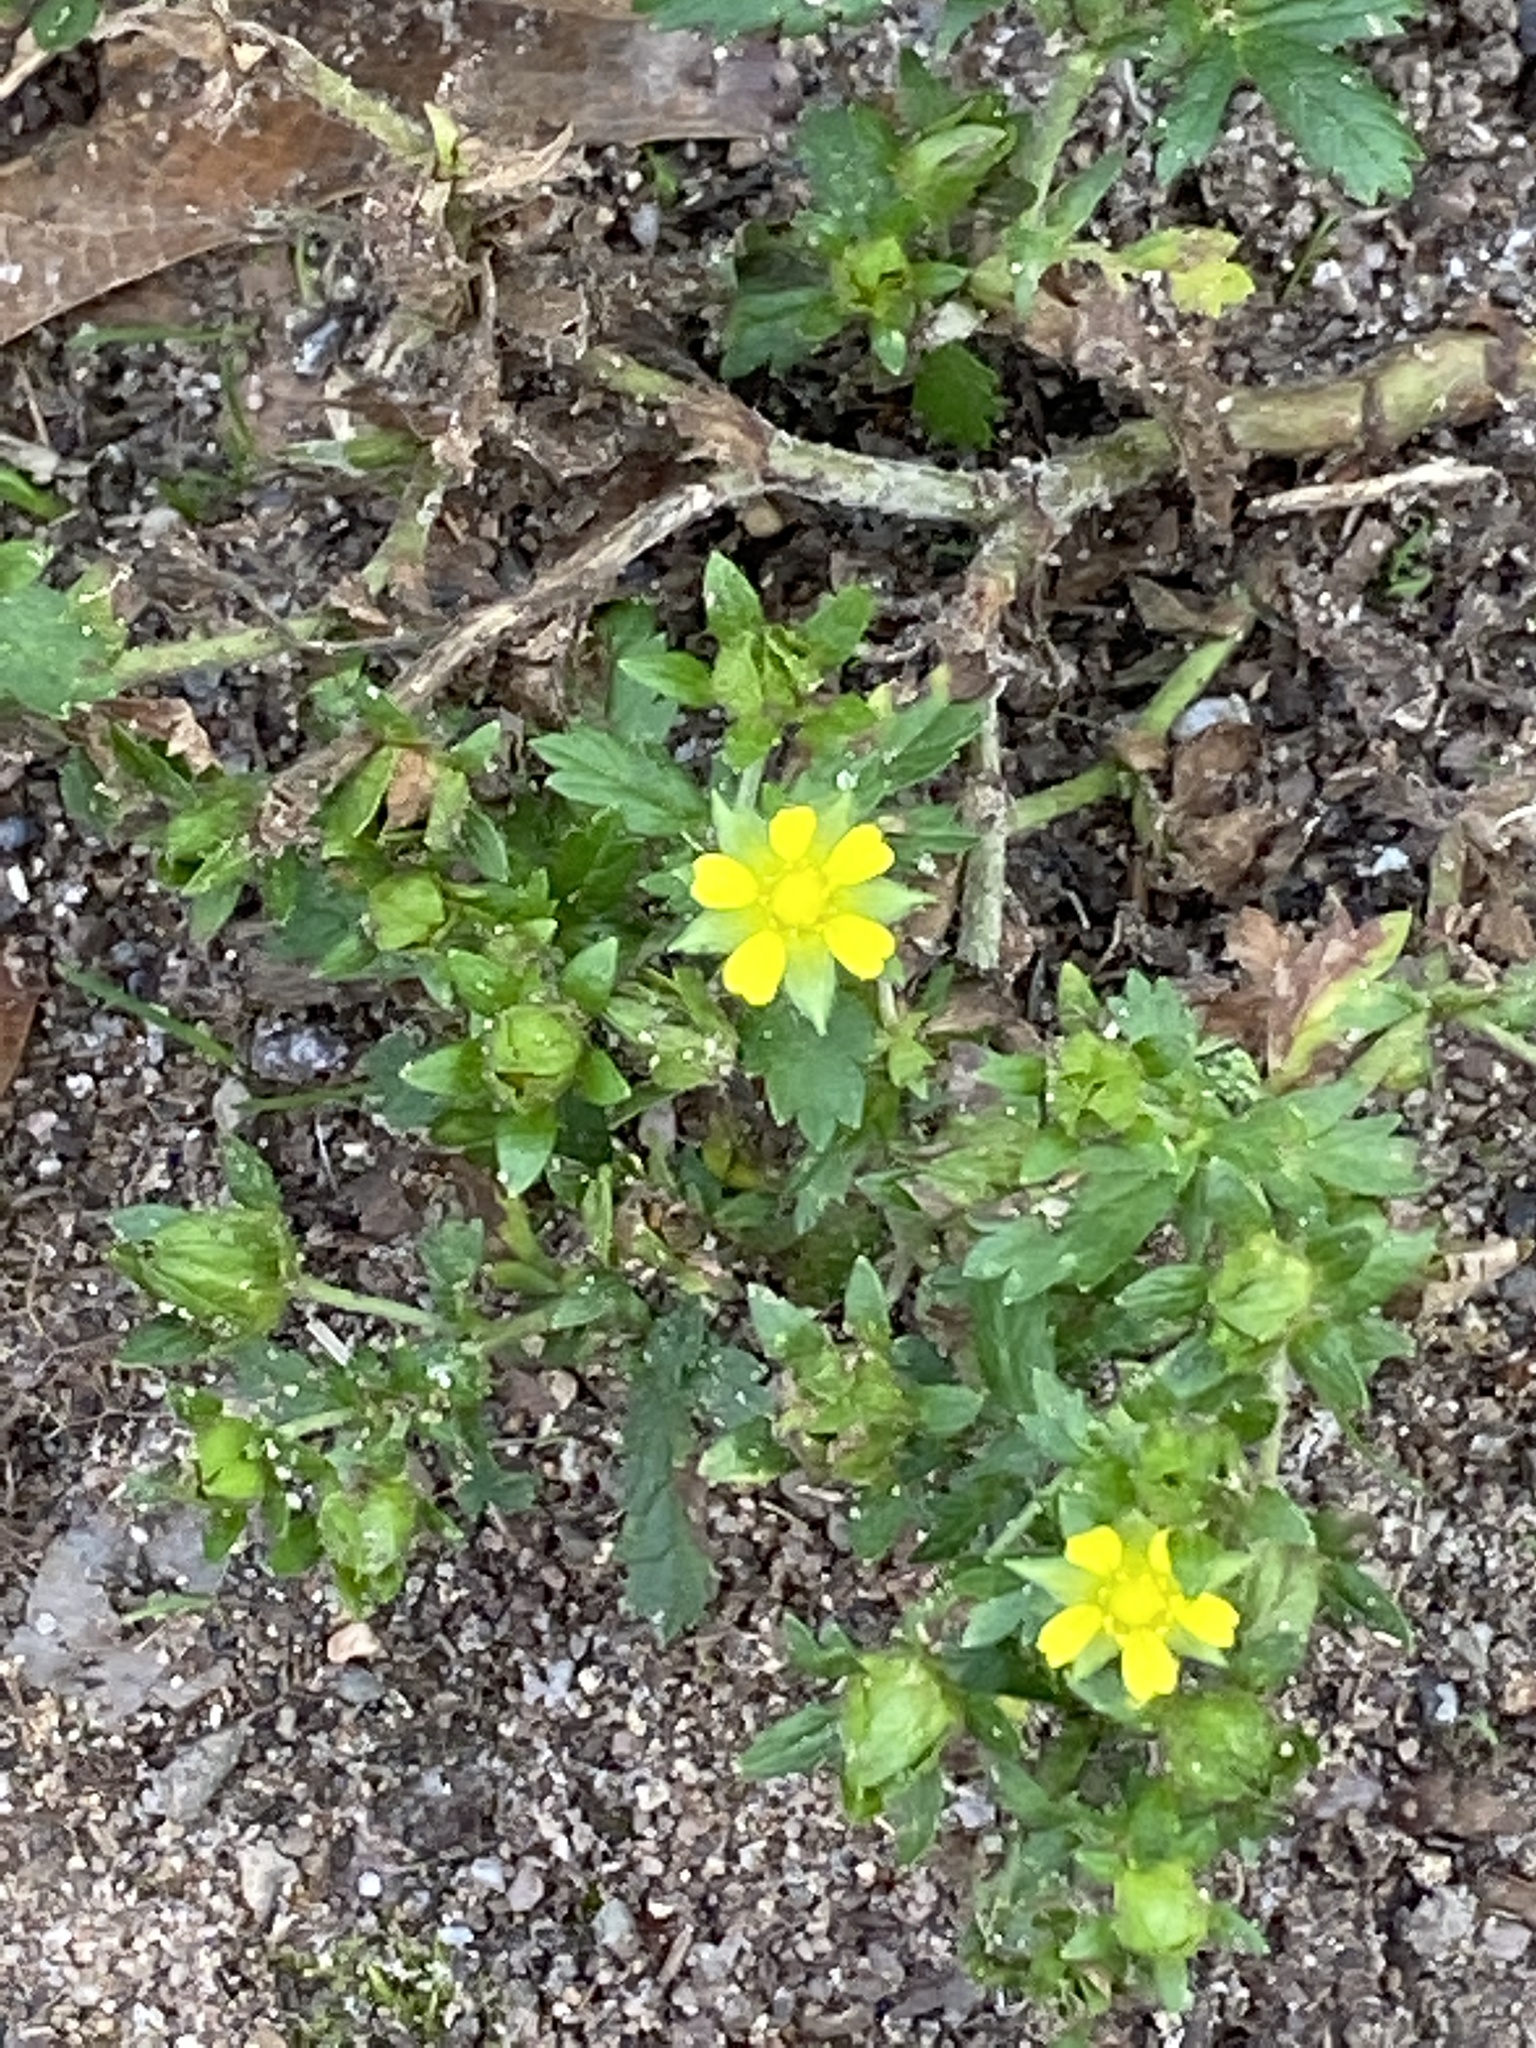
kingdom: Plantae
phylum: Tracheophyta
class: Magnoliopsida
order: Rosales
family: Rosaceae
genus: Potentilla
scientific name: Potentilla norvegica
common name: Ternate-leaved cinquefoil
